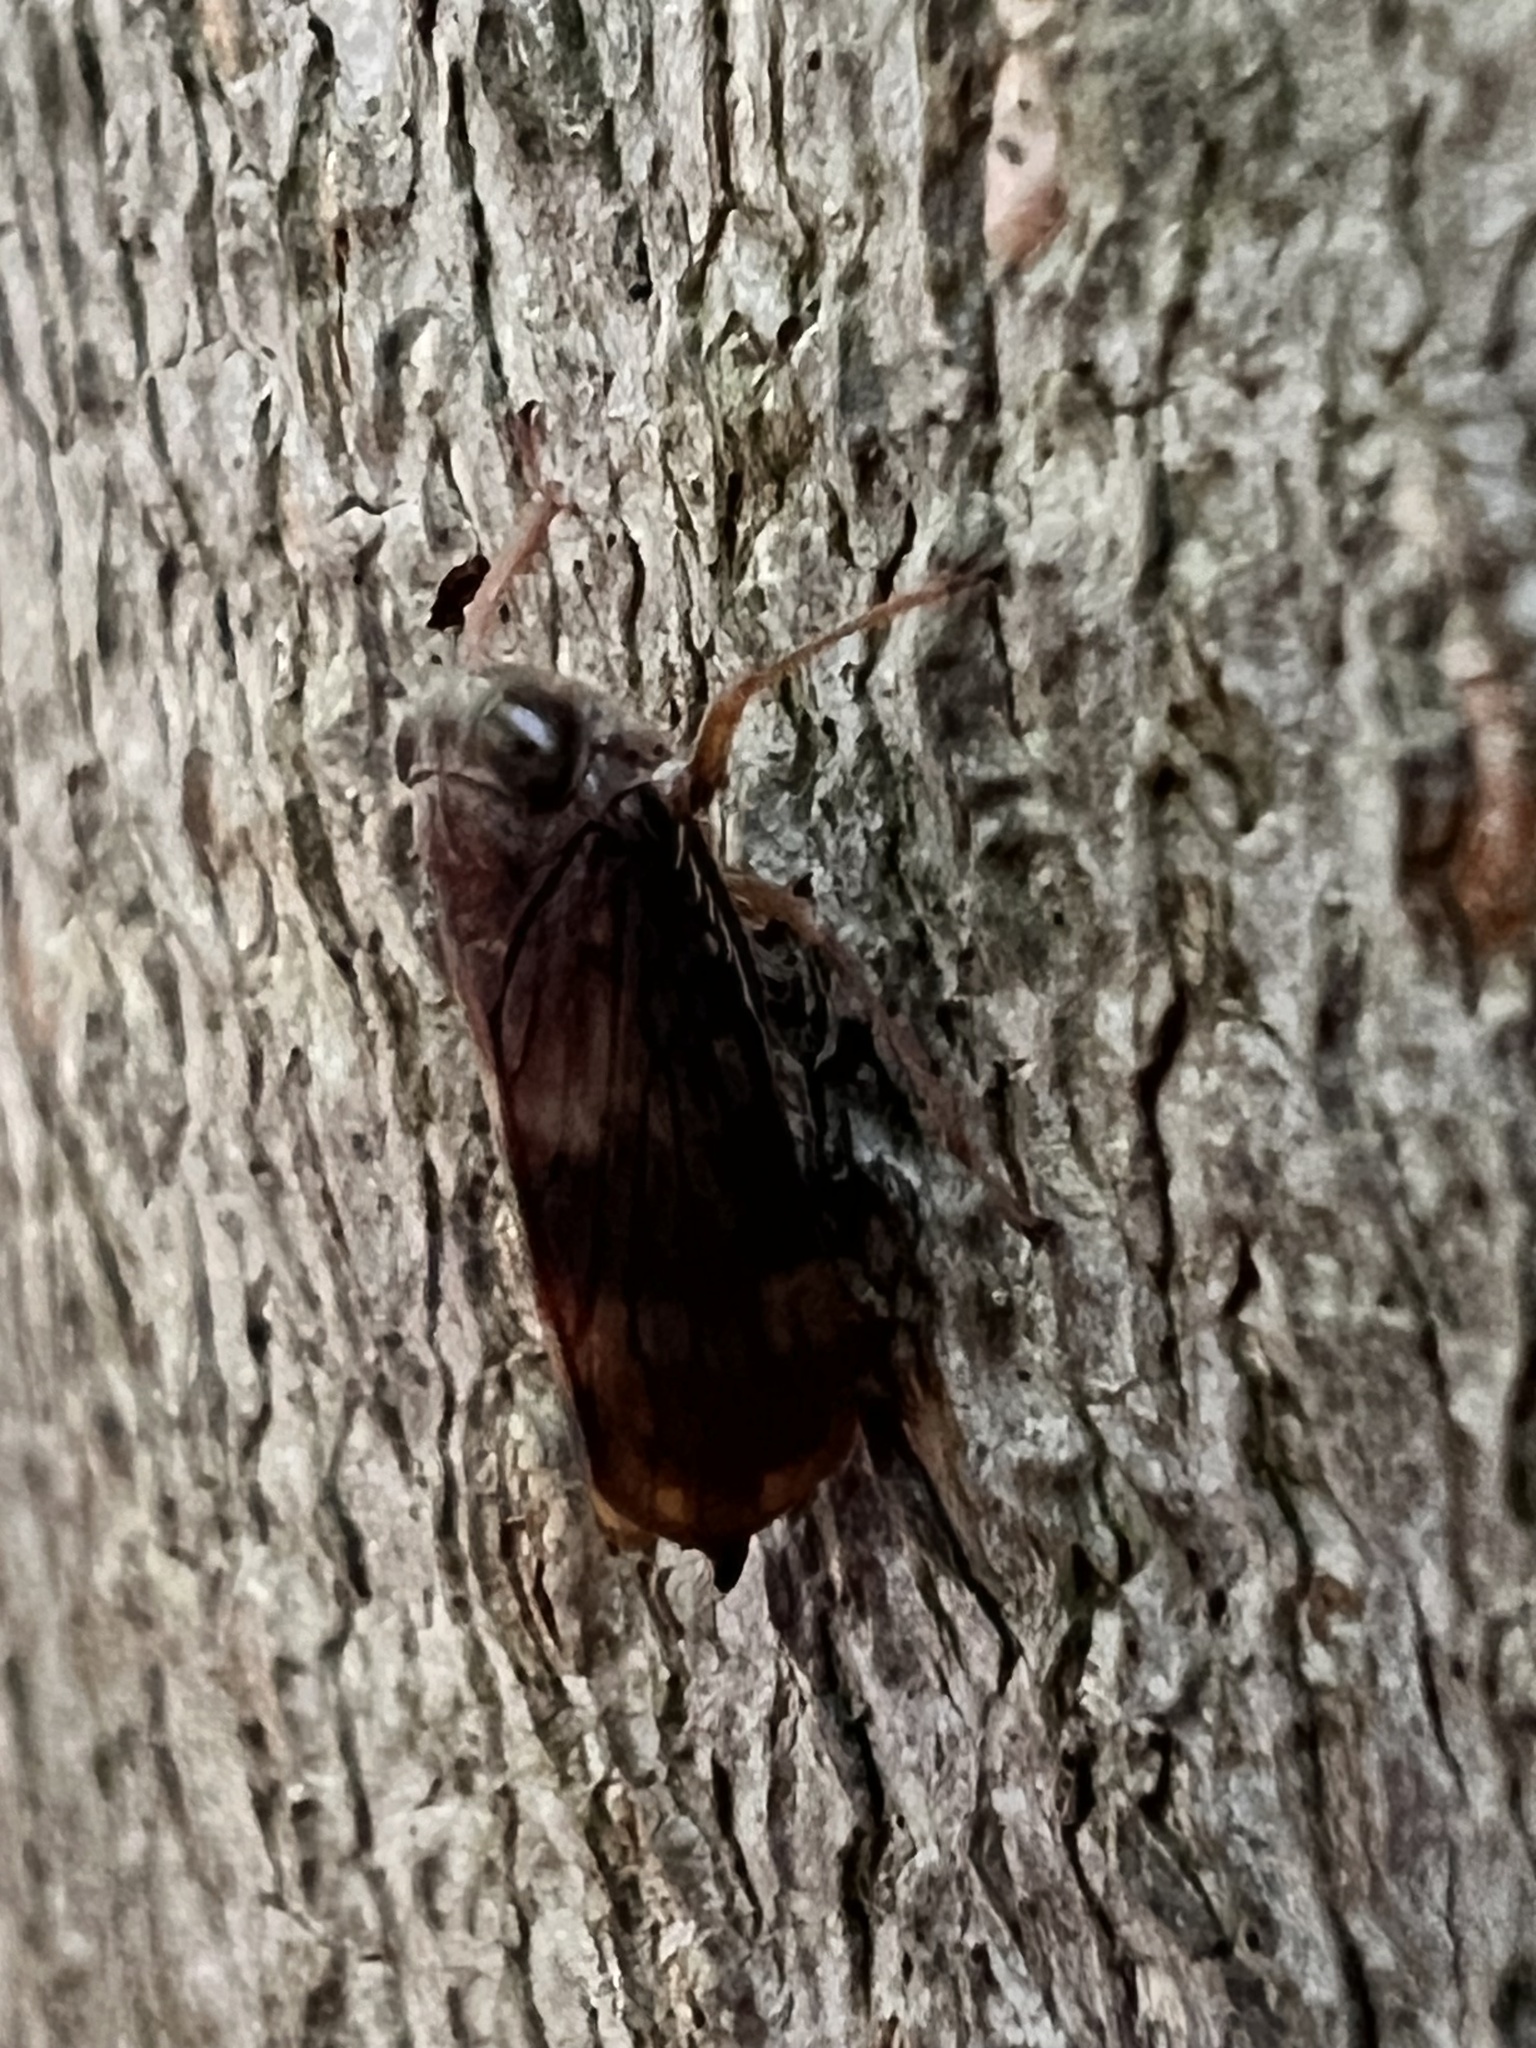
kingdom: Animalia
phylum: Arthropoda
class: Insecta
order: Hemiptera
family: Cicadellidae
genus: Jikradia
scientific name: Jikradia olitoria
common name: Coppery leafhopper
